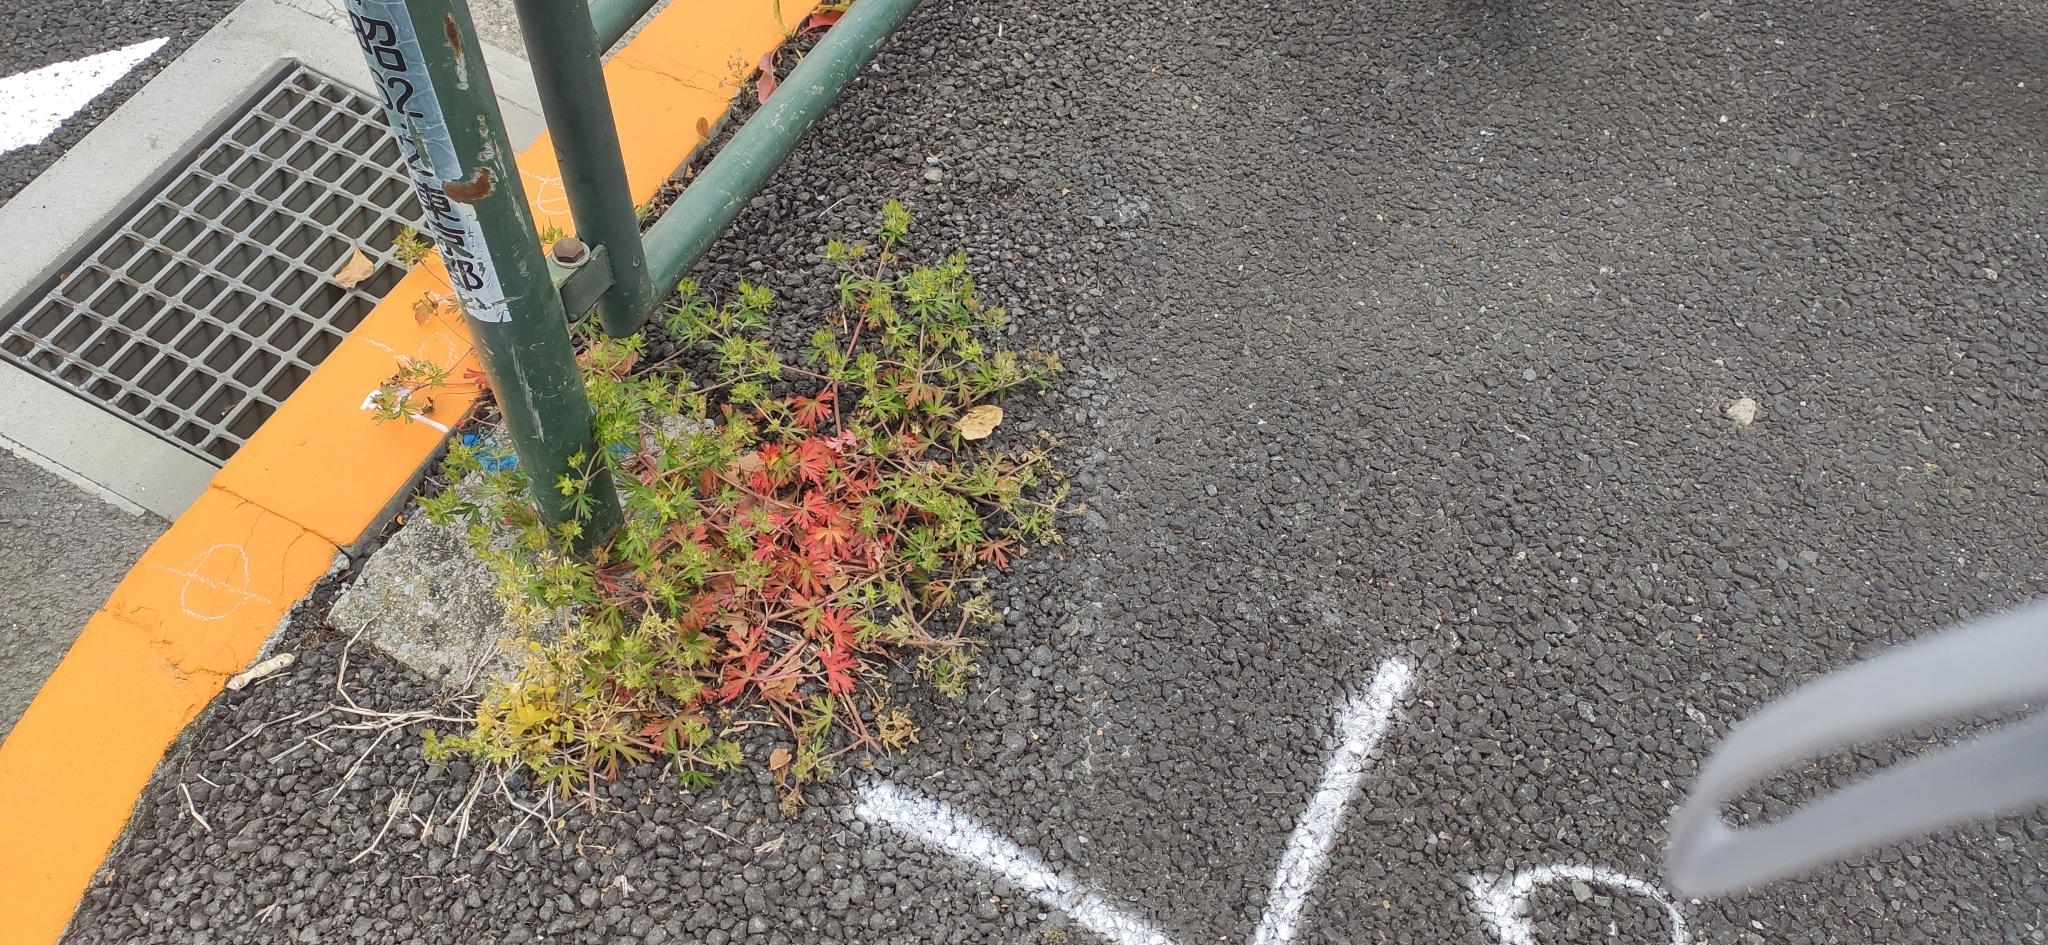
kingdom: Plantae
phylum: Tracheophyta
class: Magnoliopsida
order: Geraniales
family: Geraniaceae
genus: Geranium
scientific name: Geranium carolinianum
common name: Carolina crane's-bill
